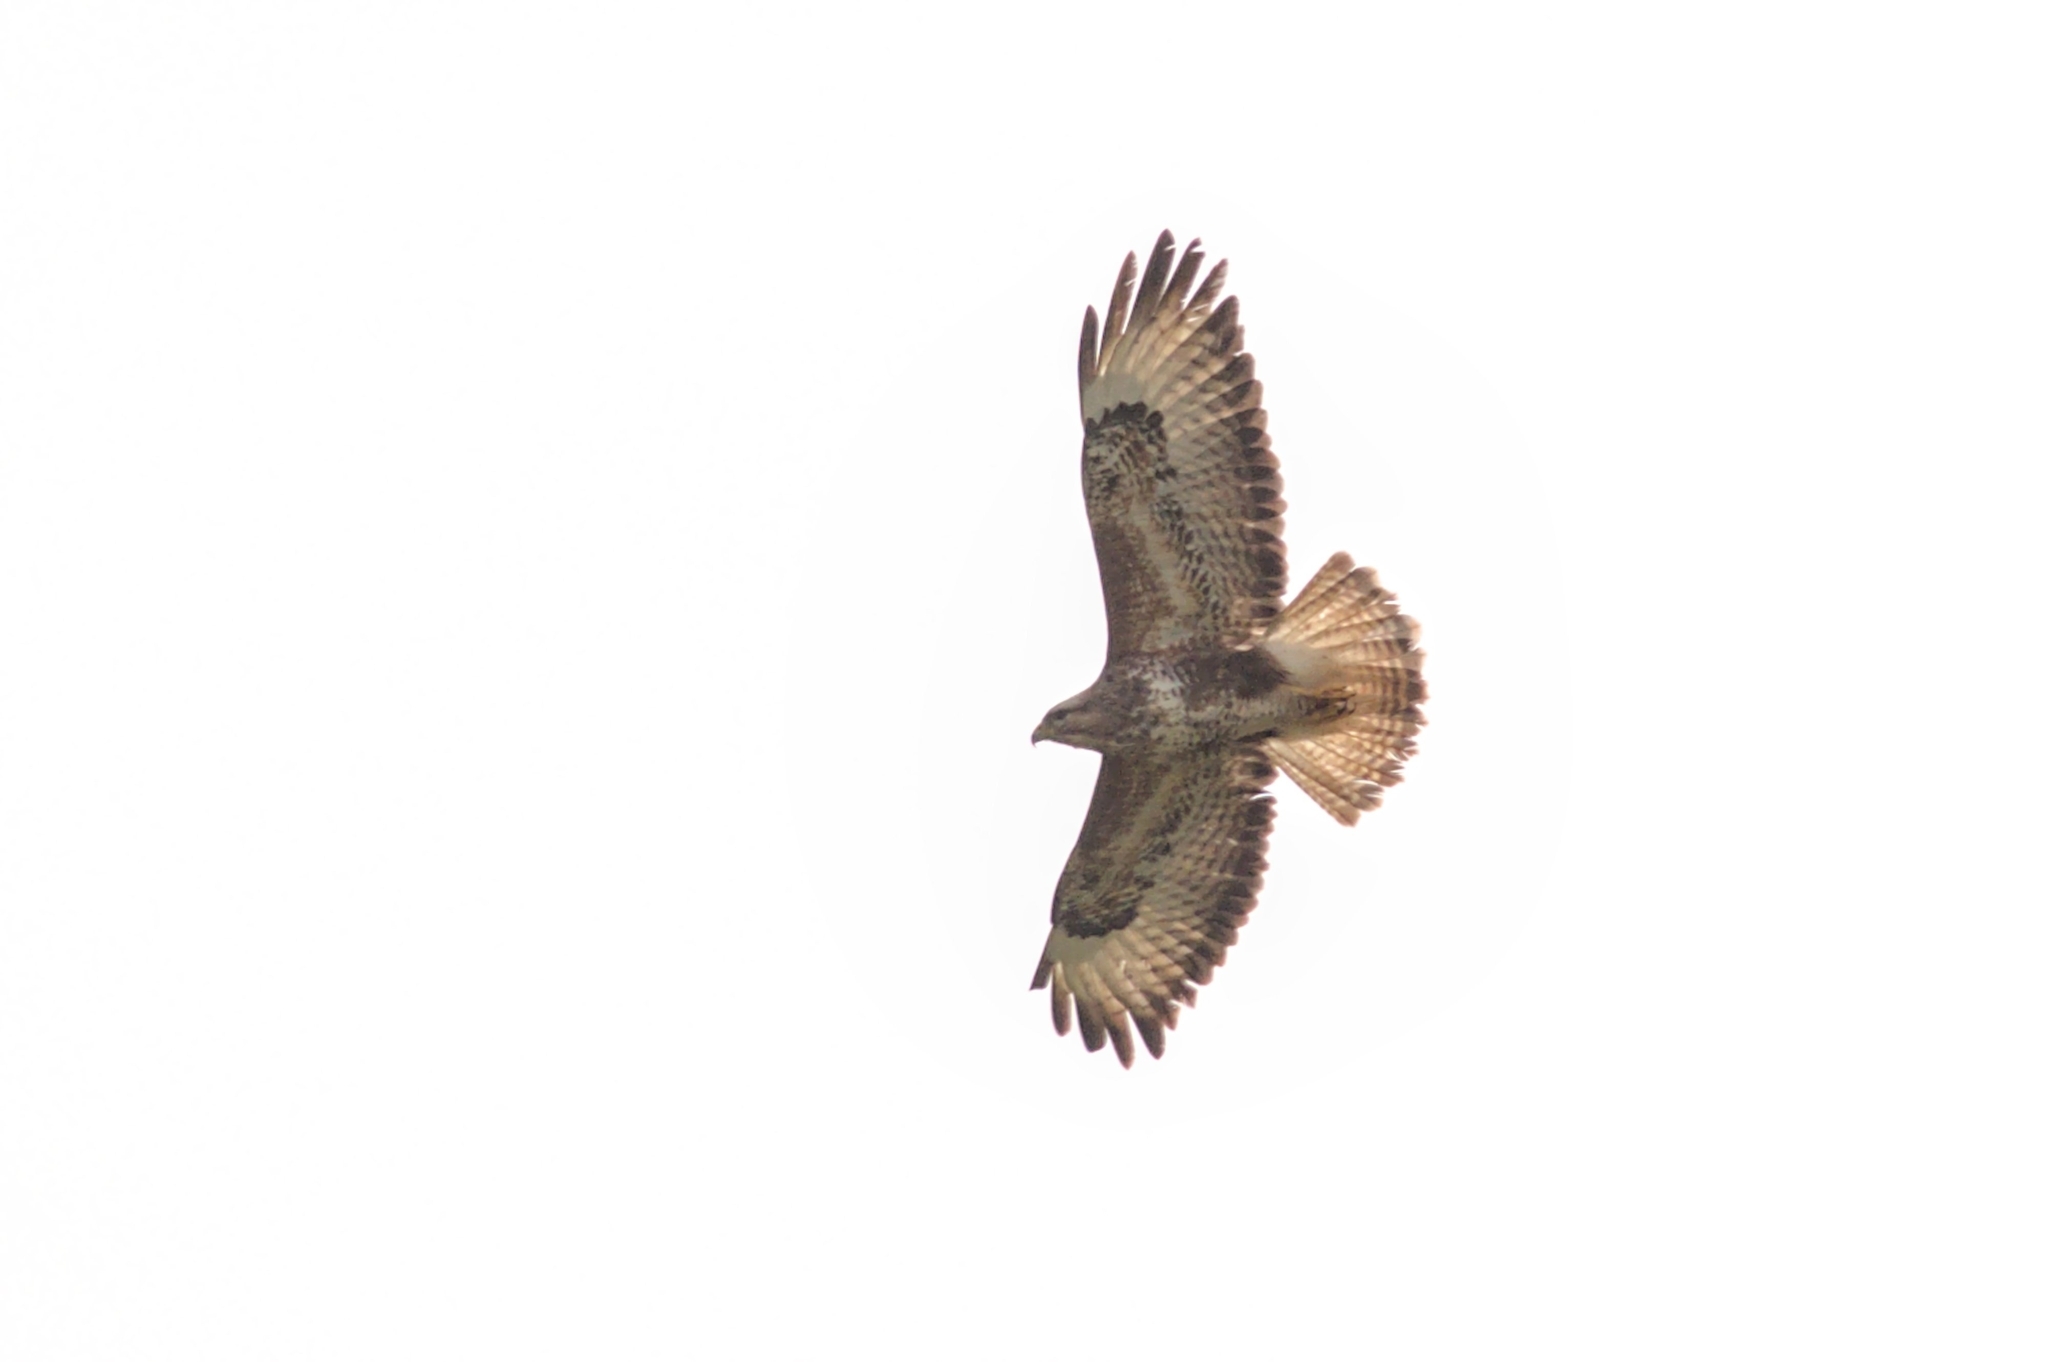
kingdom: Animalia
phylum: Chordata
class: Aves
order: Accipitriformes
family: Accipitridae
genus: Buteo
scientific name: Buteo buteo
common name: Common buzzard
